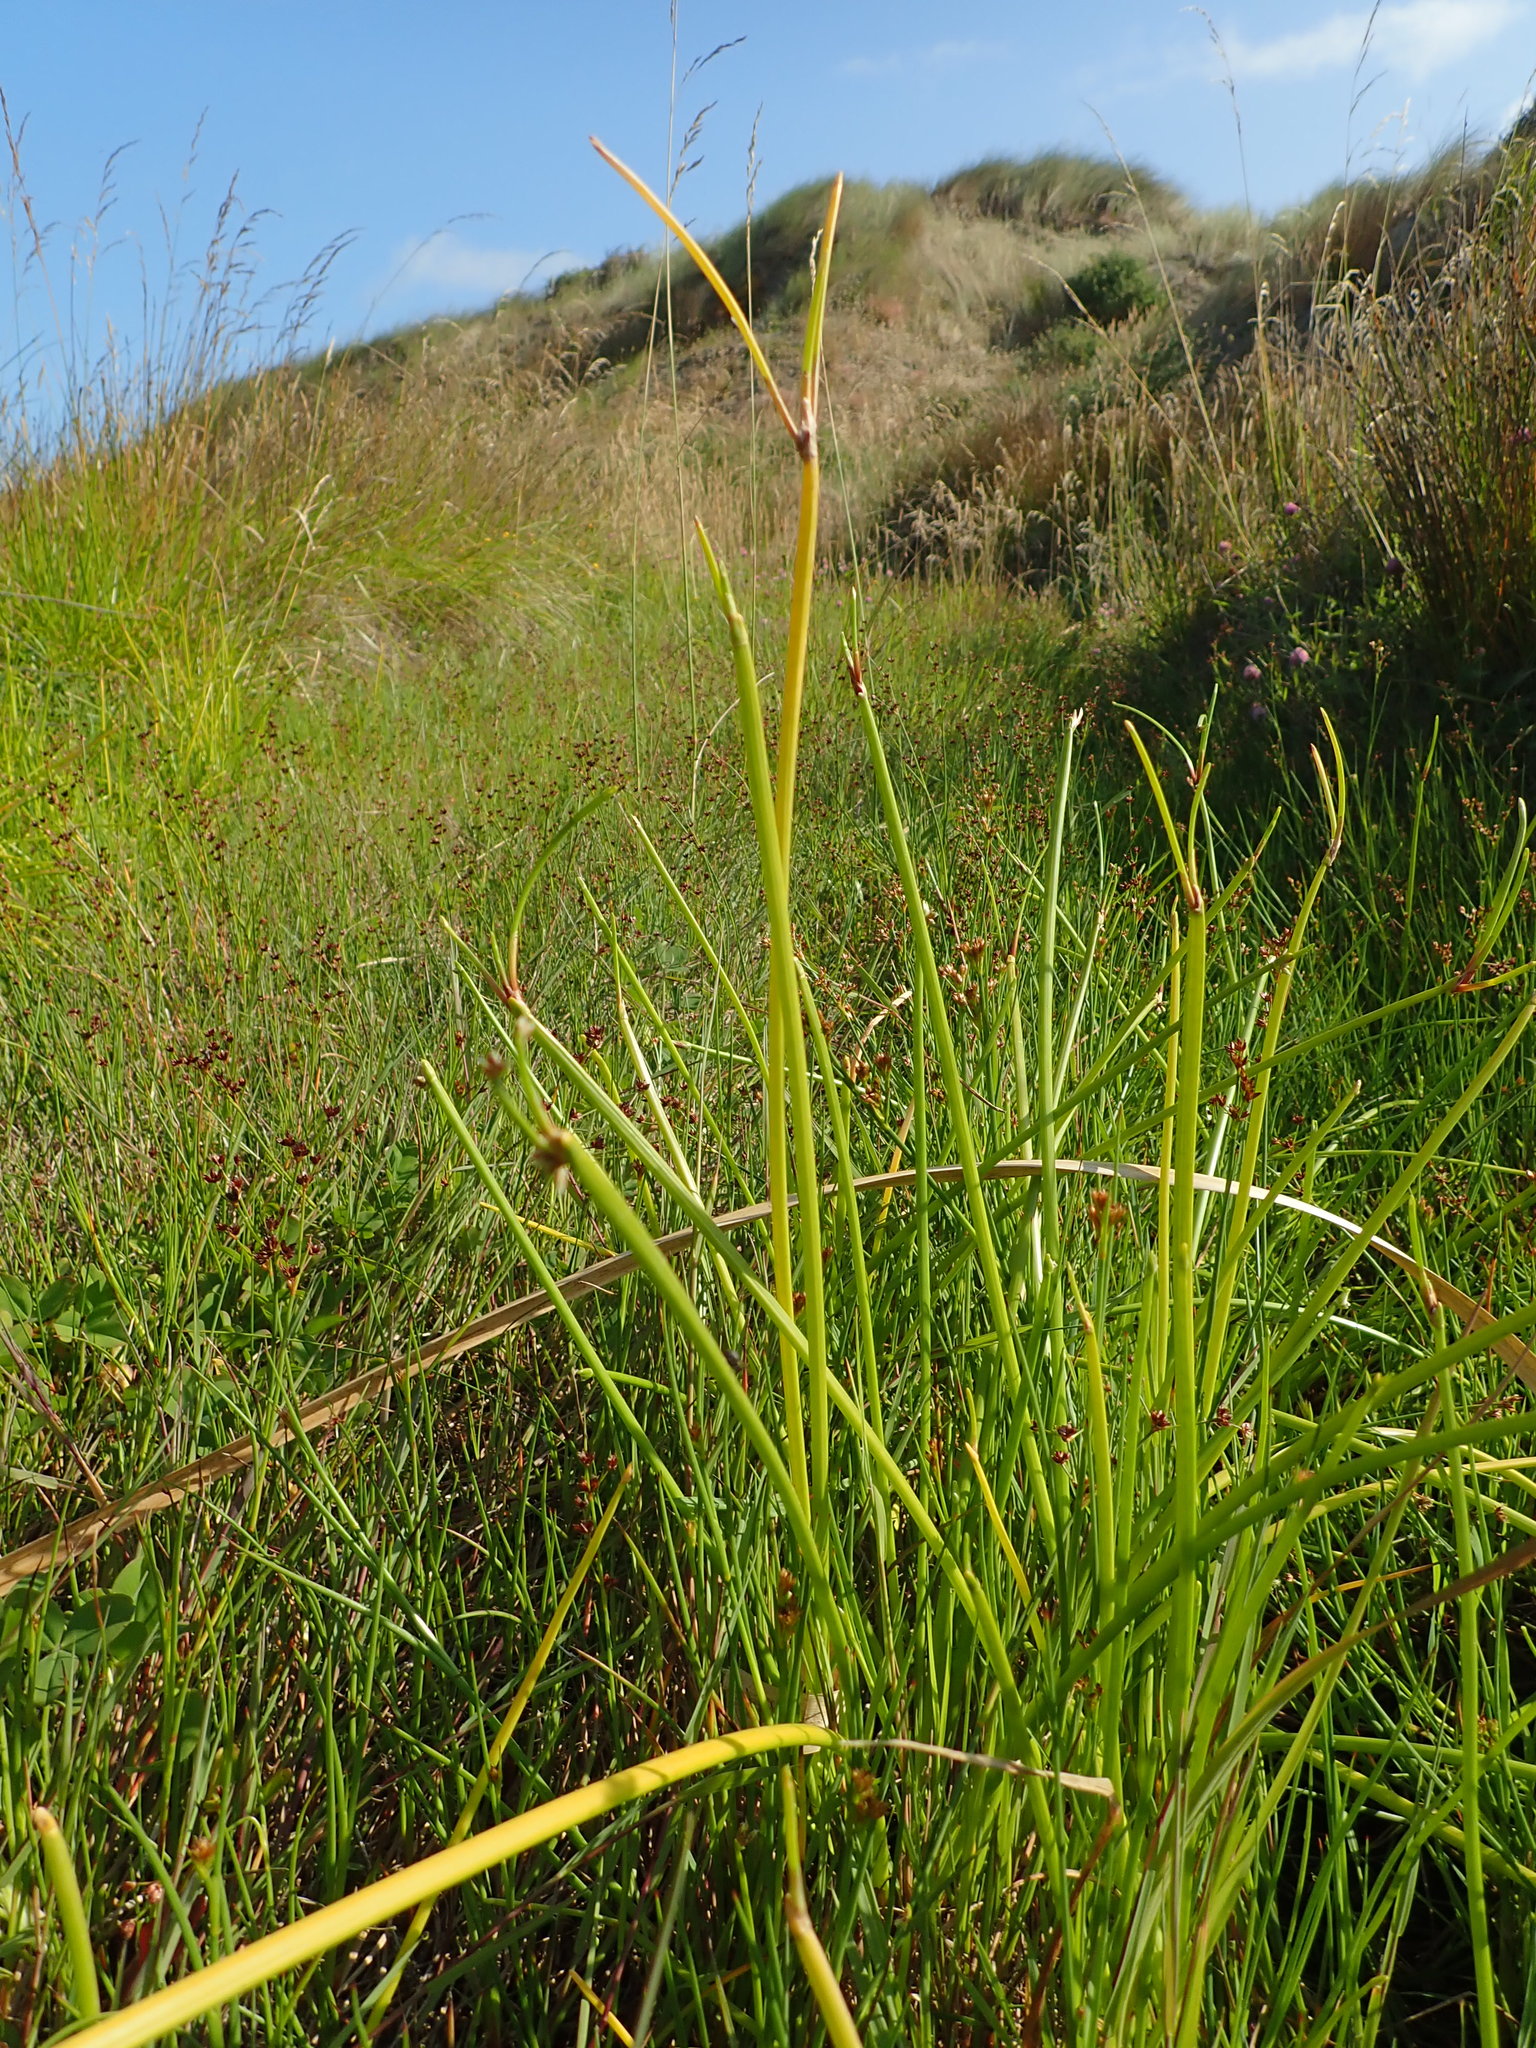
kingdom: Plantae
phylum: Tracheophyta
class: Liliopsida
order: Poales
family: Cyperaceae
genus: Isolepis
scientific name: Isolepis prolifera
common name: Proliferating bulrush
